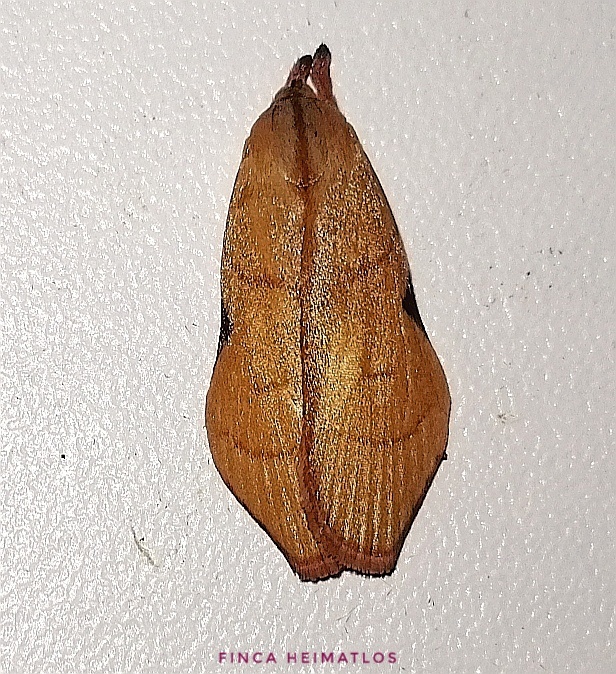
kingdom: Animalia
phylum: Arthropoda
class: Insecta
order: Lepidoptera
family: Depressariidae
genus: Loxotoma
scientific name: Loxotoma elegans
